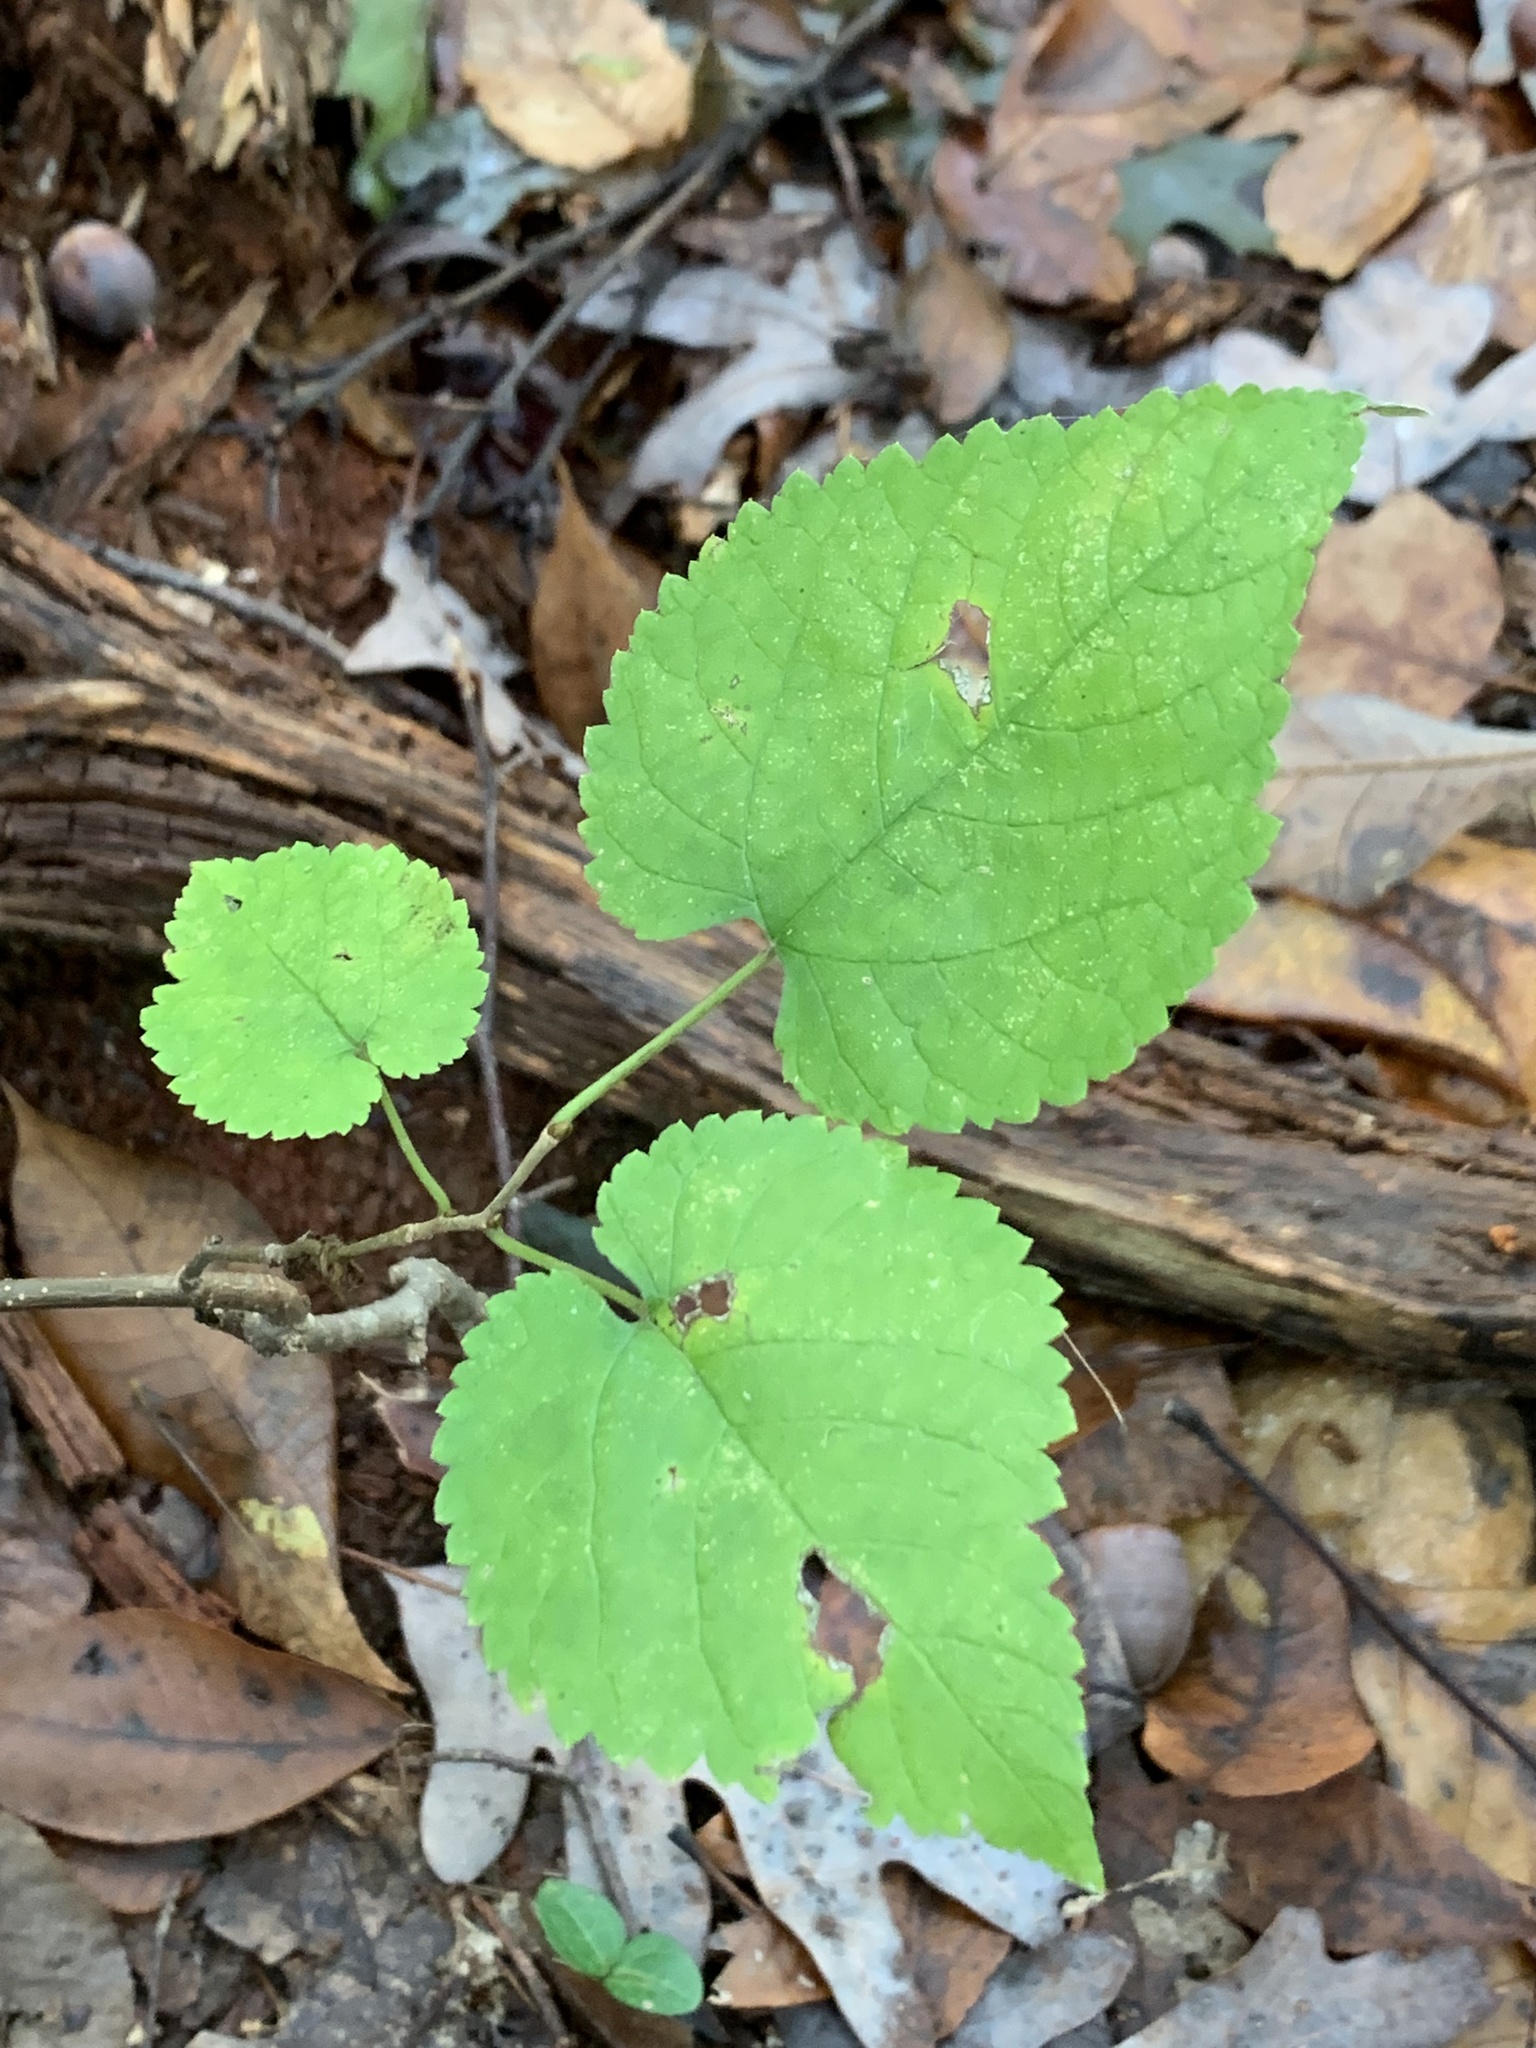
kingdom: Plantae
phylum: Tracheophyta
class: Magnoliopsida
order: Rosales
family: Moraceae
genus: Morus
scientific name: Morus rubra
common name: Red mulberry
